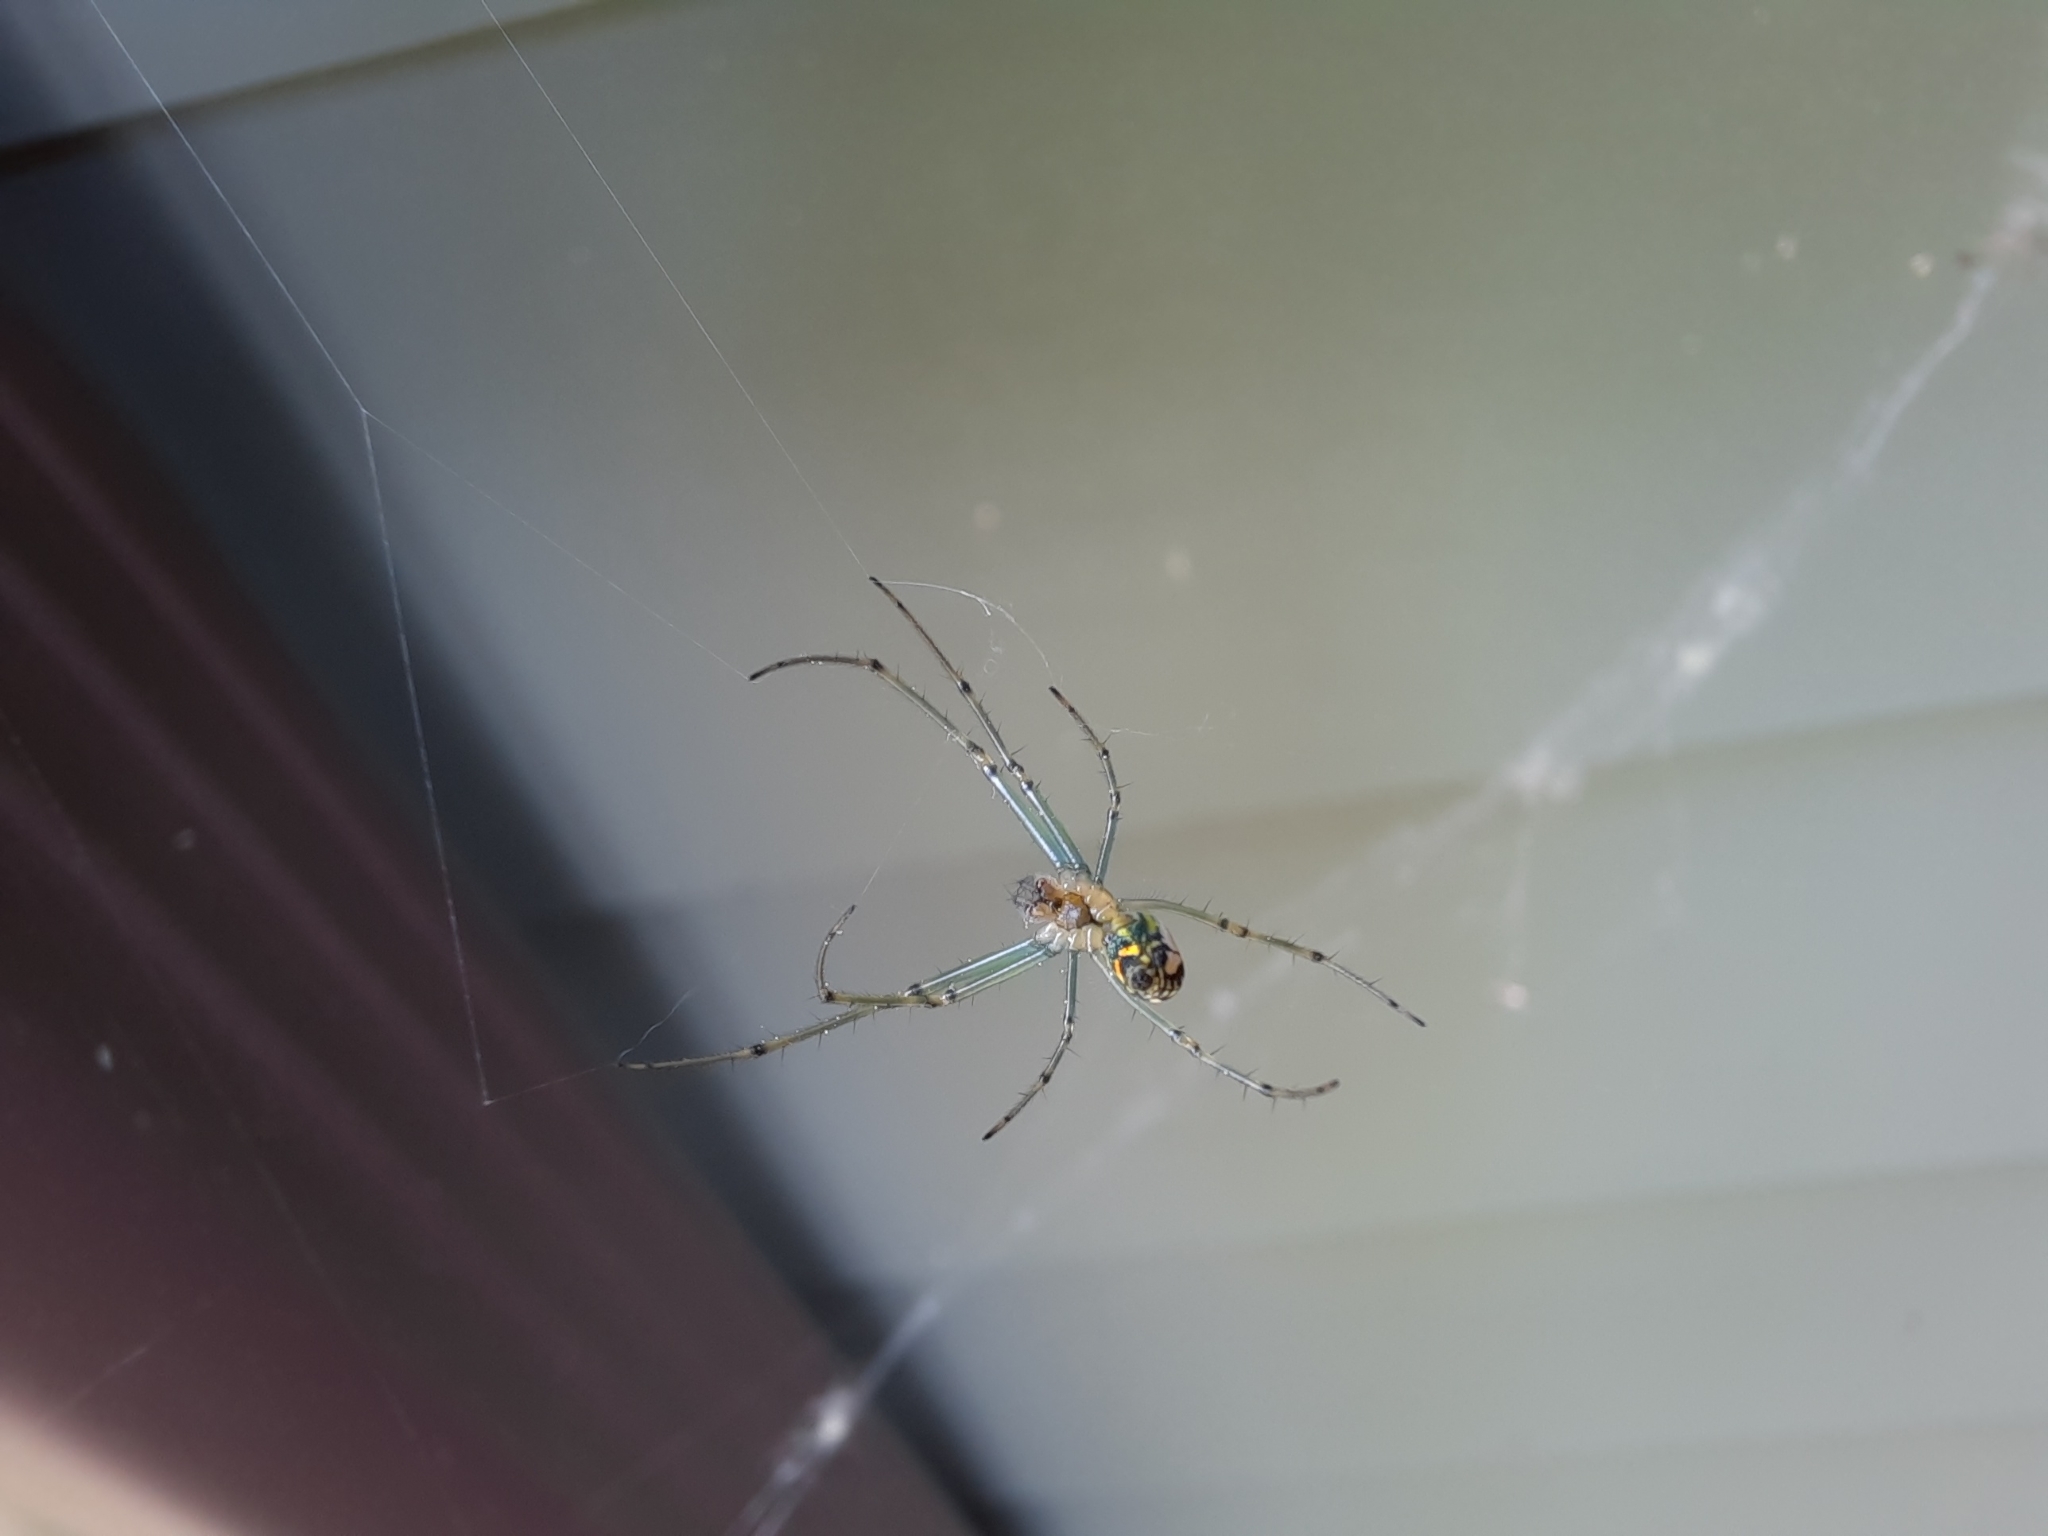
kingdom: Animalia
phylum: Arthropoda
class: Arachnida
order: Araneae
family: Tetragnathidae
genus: Leucauge
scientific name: Leucauge venusta
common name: Longjawed orb weavers
